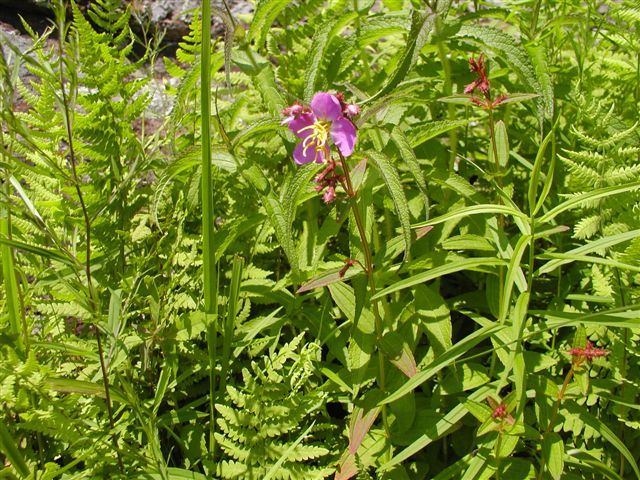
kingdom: Plantae
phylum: Tracheophyta
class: Magnoliopsida
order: Myrtales
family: Melastomataceae
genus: Rhexia
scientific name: Rhexia virginica
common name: Common meadow beauty
